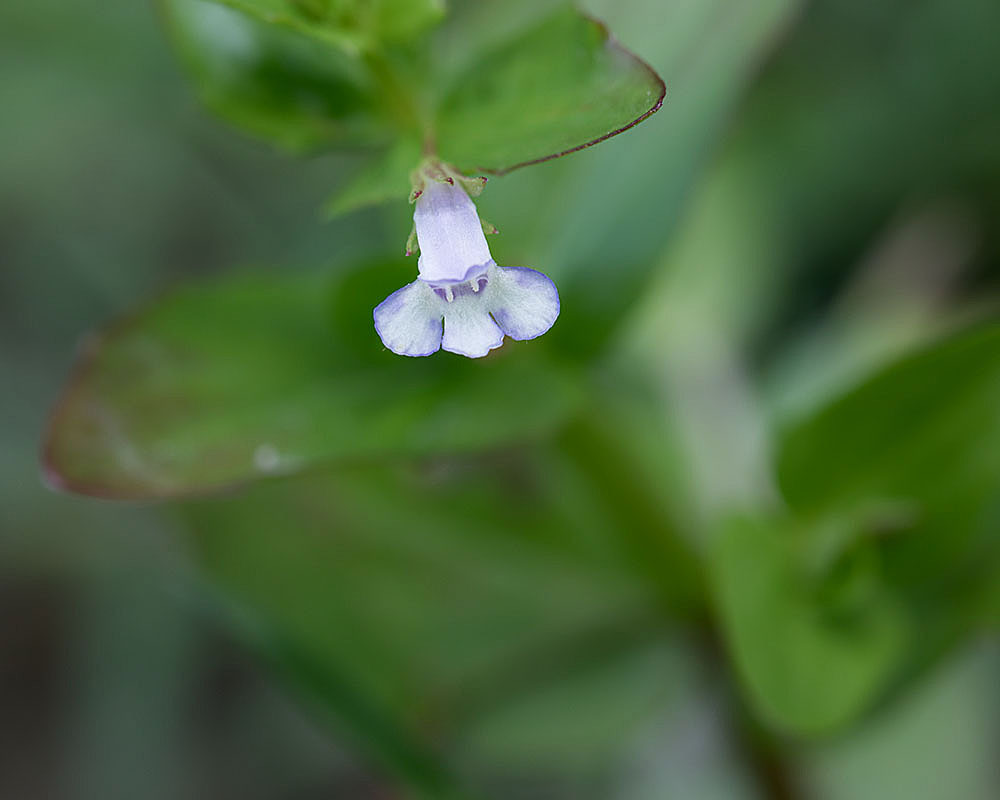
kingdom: Plantae
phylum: Tracheophyta
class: Magnoliopsida
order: Lamiales
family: Linderniaceae
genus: Lindernia
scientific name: Lindernia dubia
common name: Annual false pimpernel
